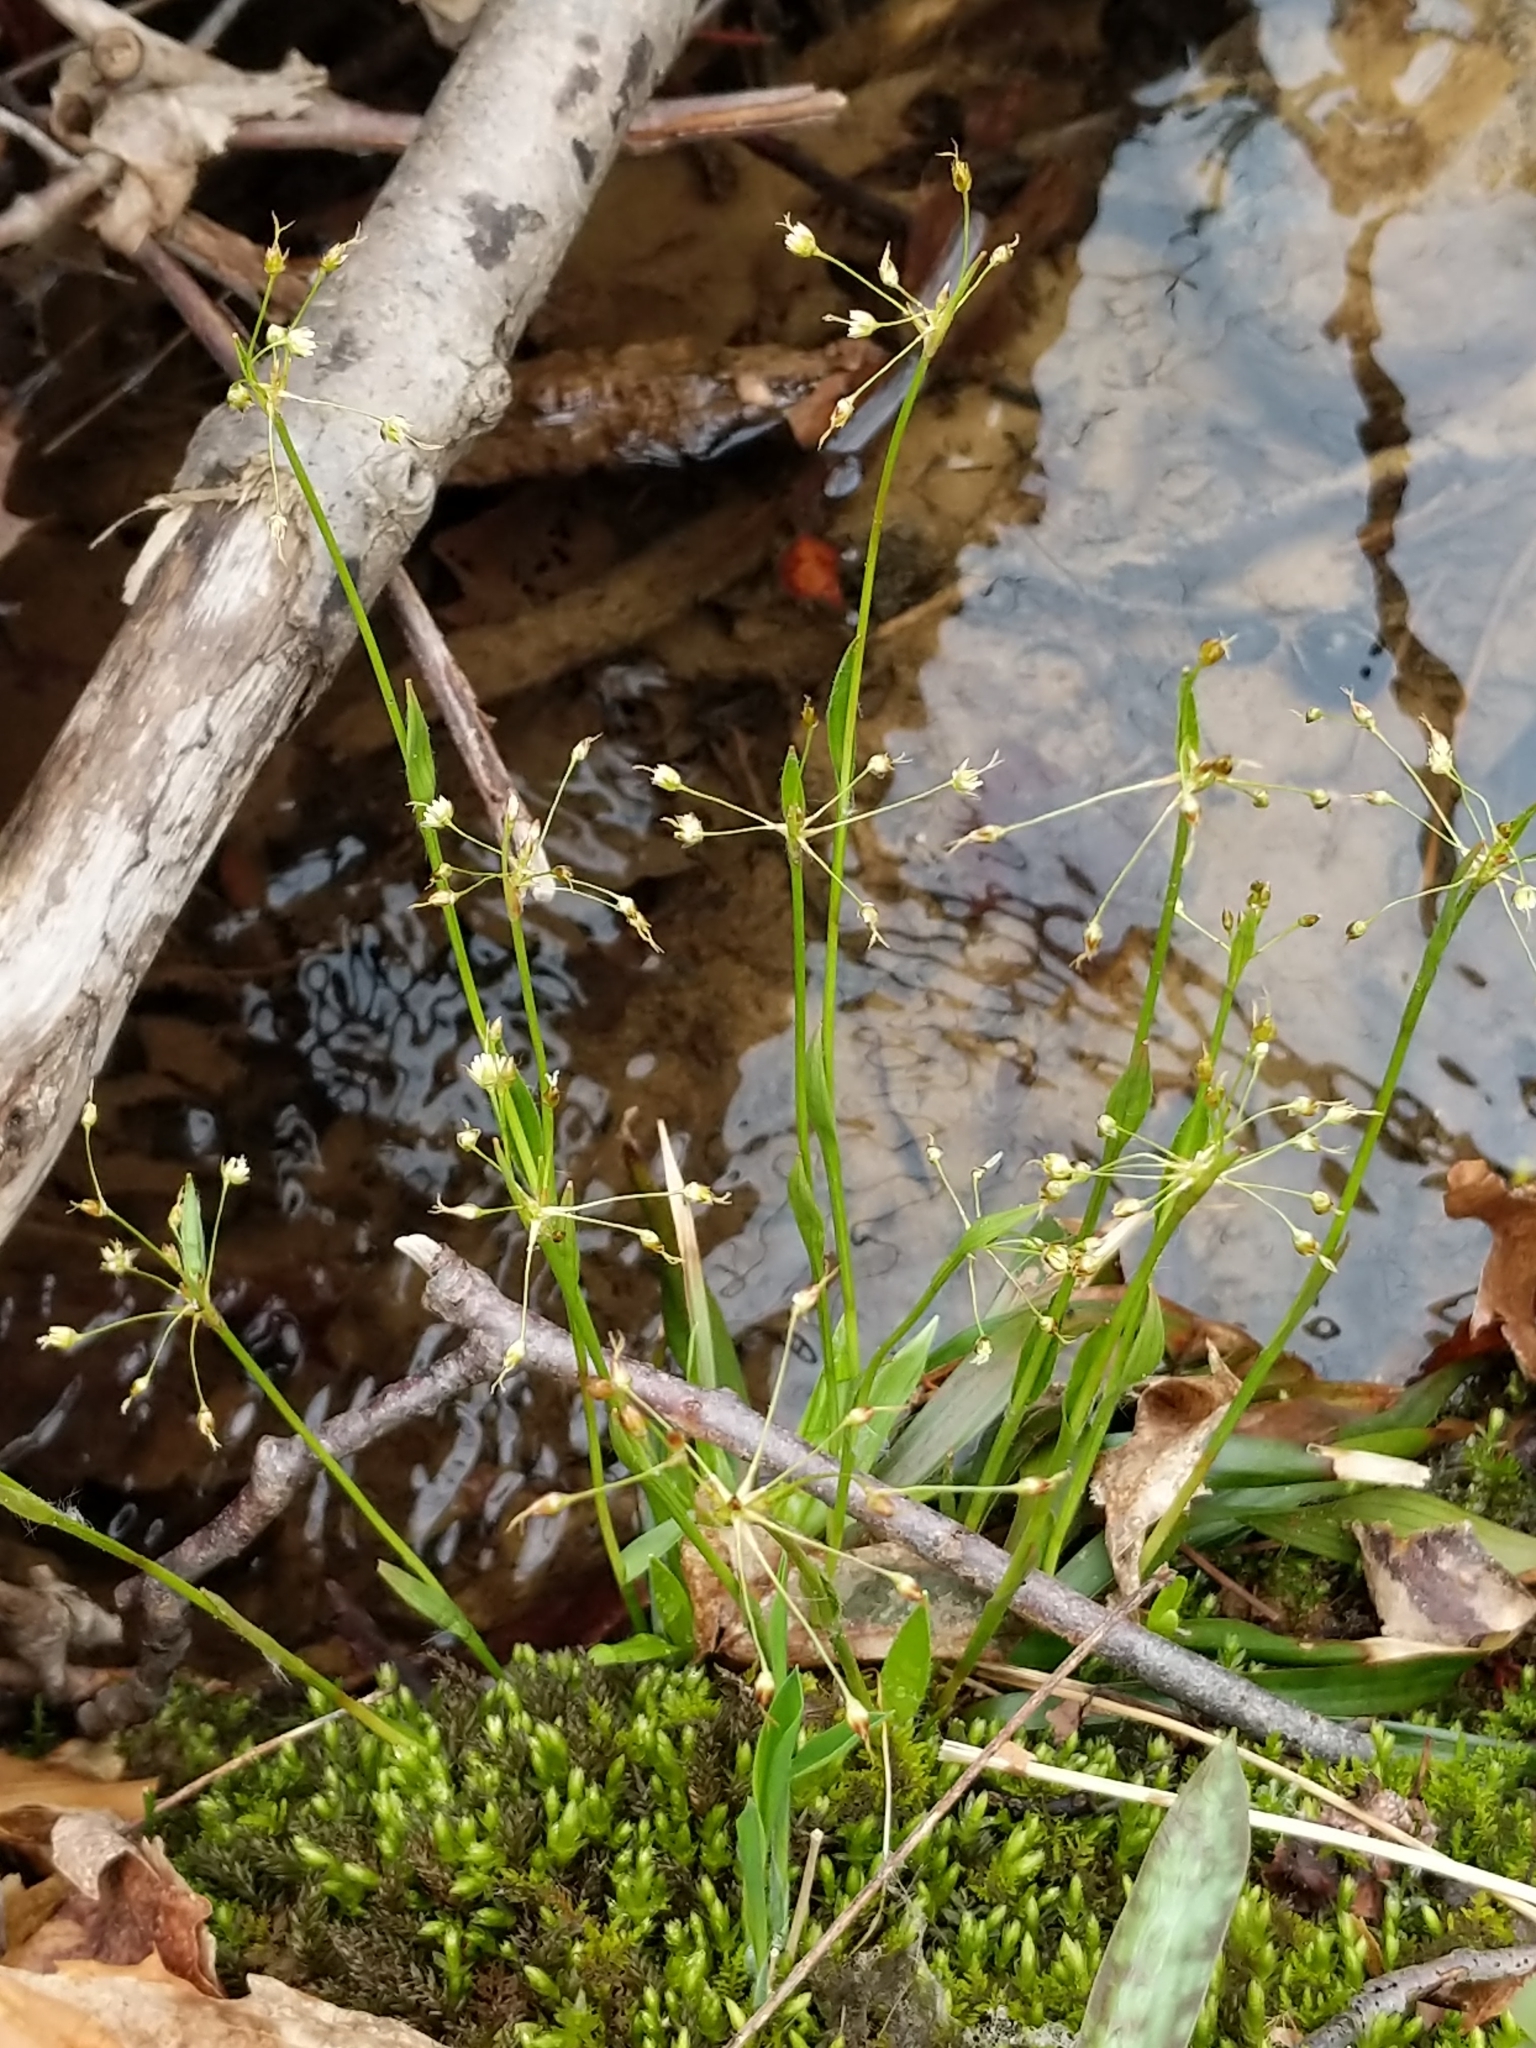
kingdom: Plantae
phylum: Tracheophyta
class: Liliopsida
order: Poales
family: Juncaceae
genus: Luzula
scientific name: Luzula acuminata
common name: Hairy woodrush
